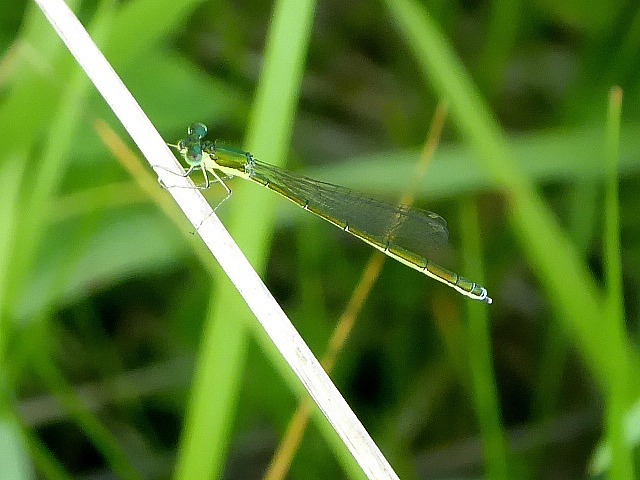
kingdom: Animalia
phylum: Arthropoda
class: Insecta
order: Odonata
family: Coenagrionidae
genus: Nehalennia
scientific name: Nehalennia irene
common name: Sedge sprite
